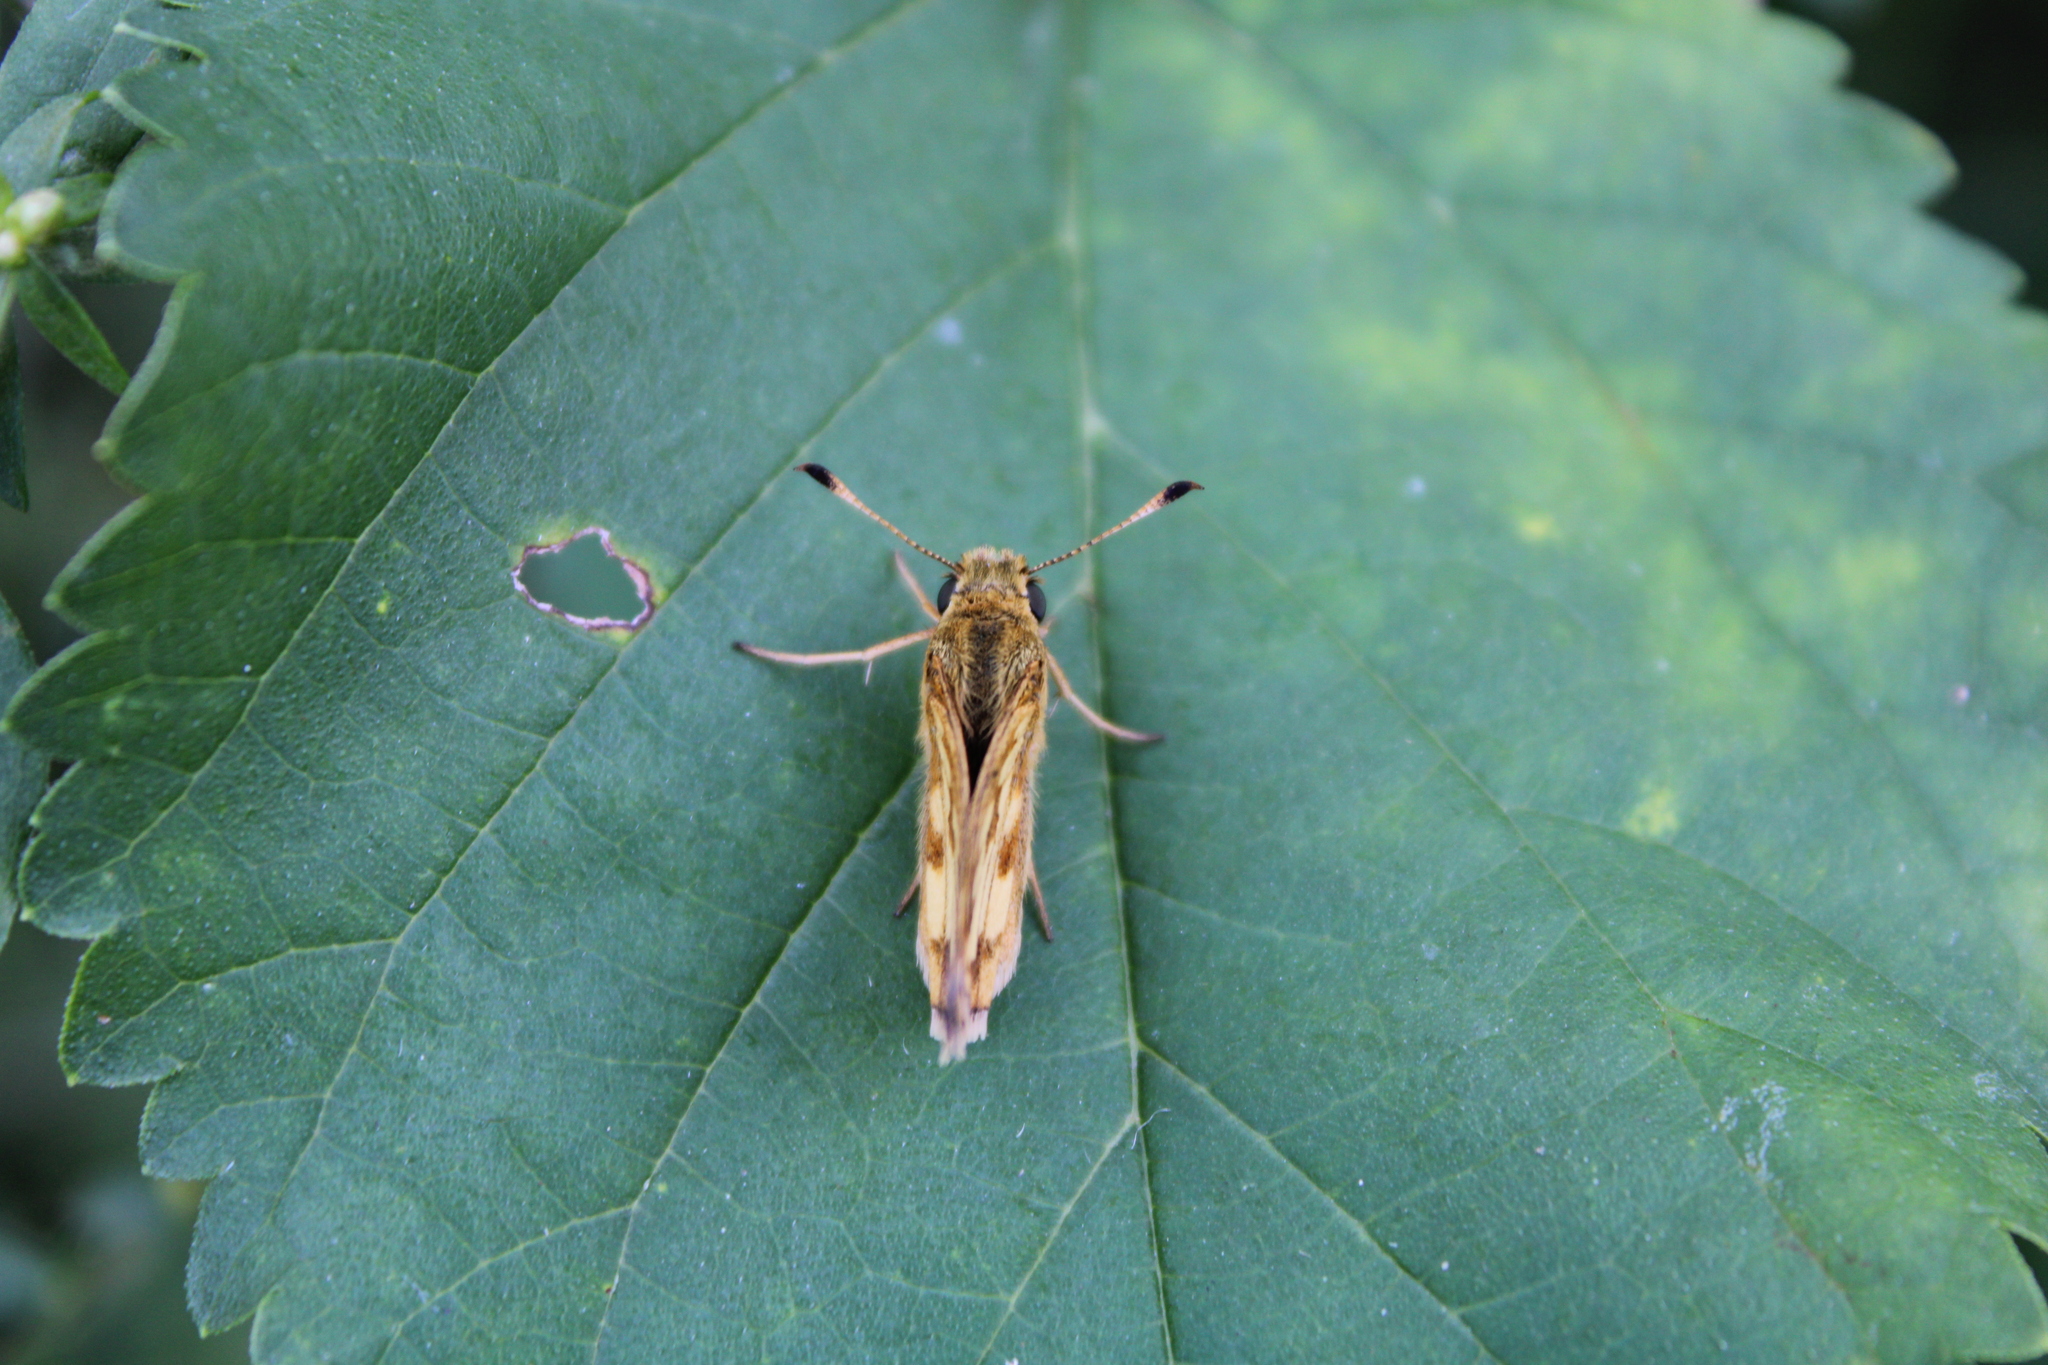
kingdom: Animalia
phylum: Arthropoda
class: Insecta
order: Lepidoptera
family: Hesperiidae
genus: Polites
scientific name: Polites coras
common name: Peck's skipper
